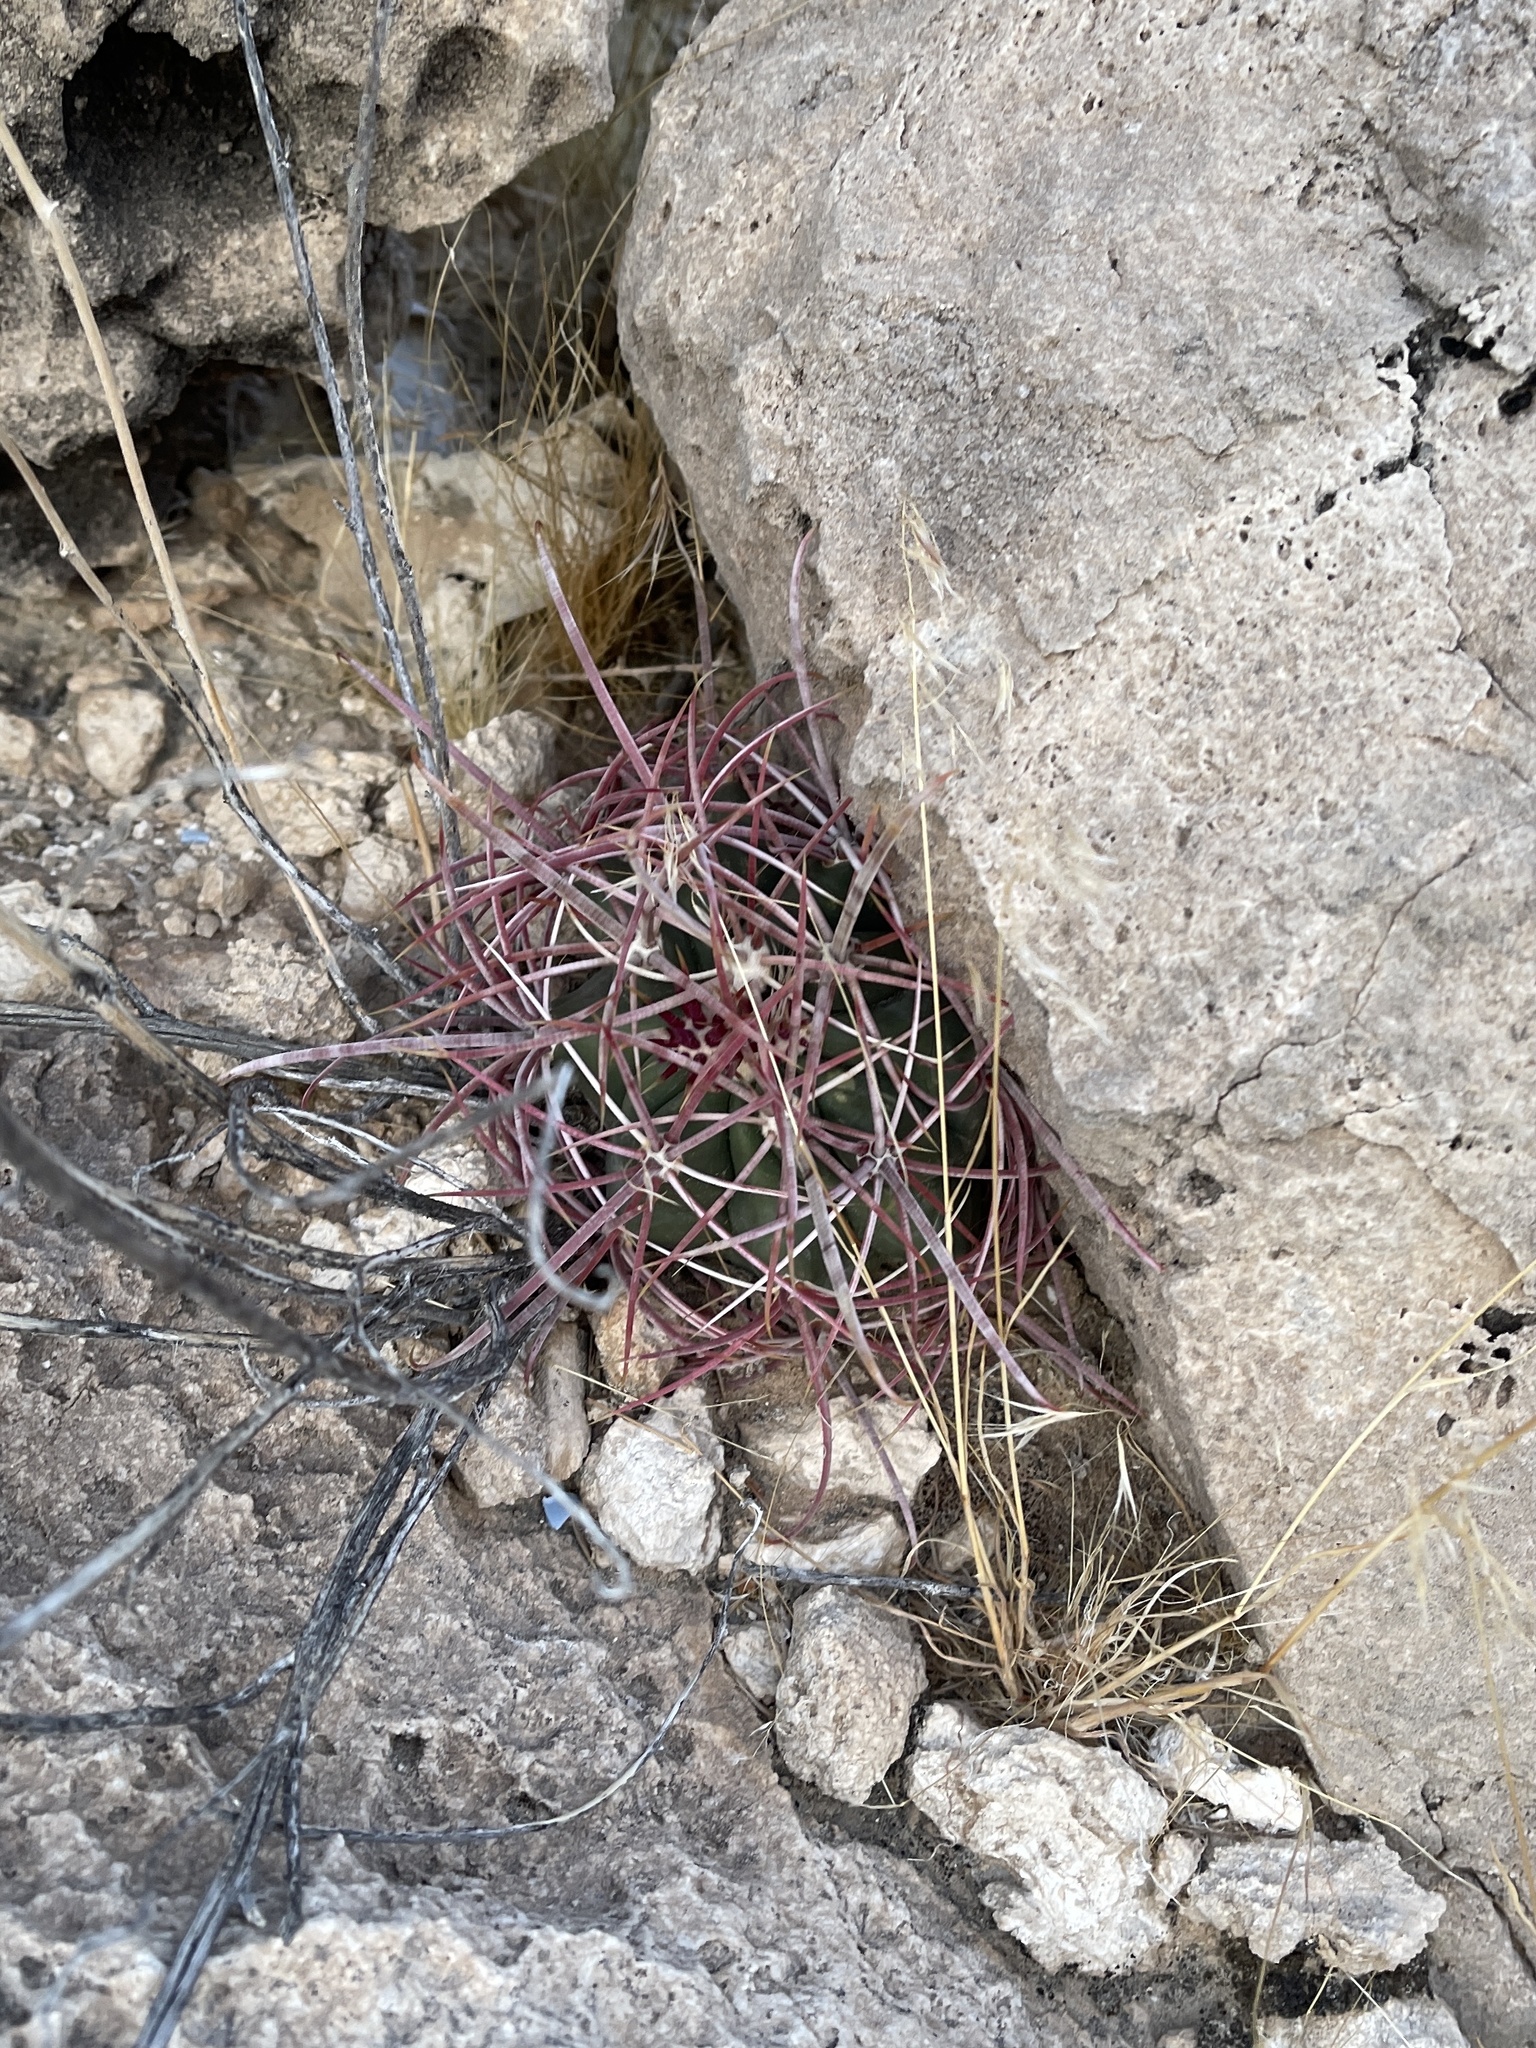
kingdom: Plantae
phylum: Tracheophyta
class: Magnoliopsida
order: Caryophyllales
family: Cactaceae
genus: Ferocactus
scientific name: Ferocactus cylindraceus
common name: California barrel cactus
